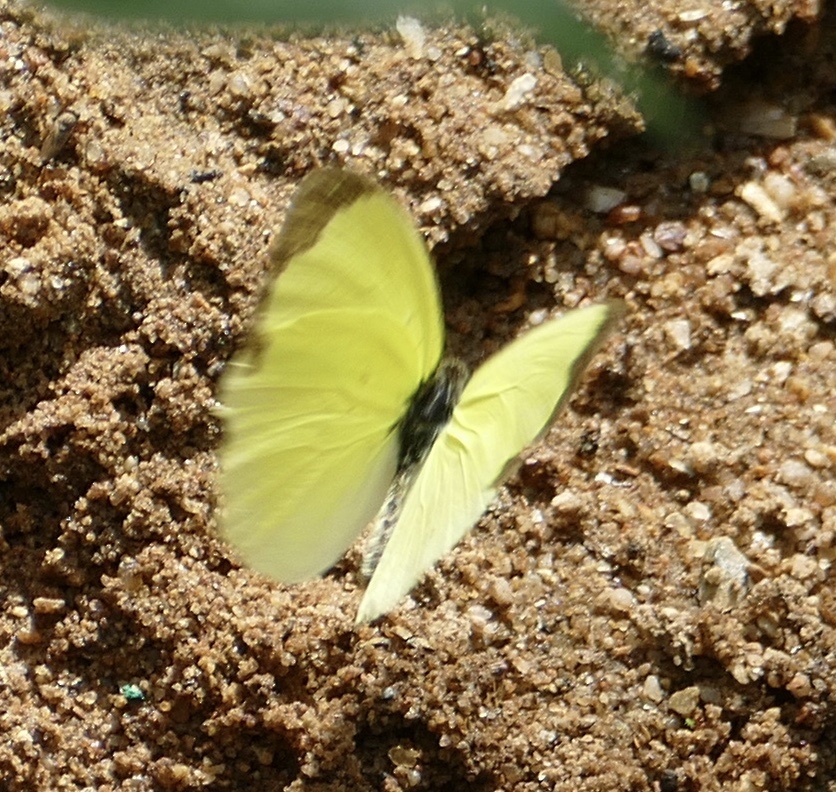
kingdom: Animalia
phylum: Arthropoda
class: Insecta
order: Lepidoptera
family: Pieridae
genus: Eurema
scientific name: Eurema floricola
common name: Malagasy grass yellow
